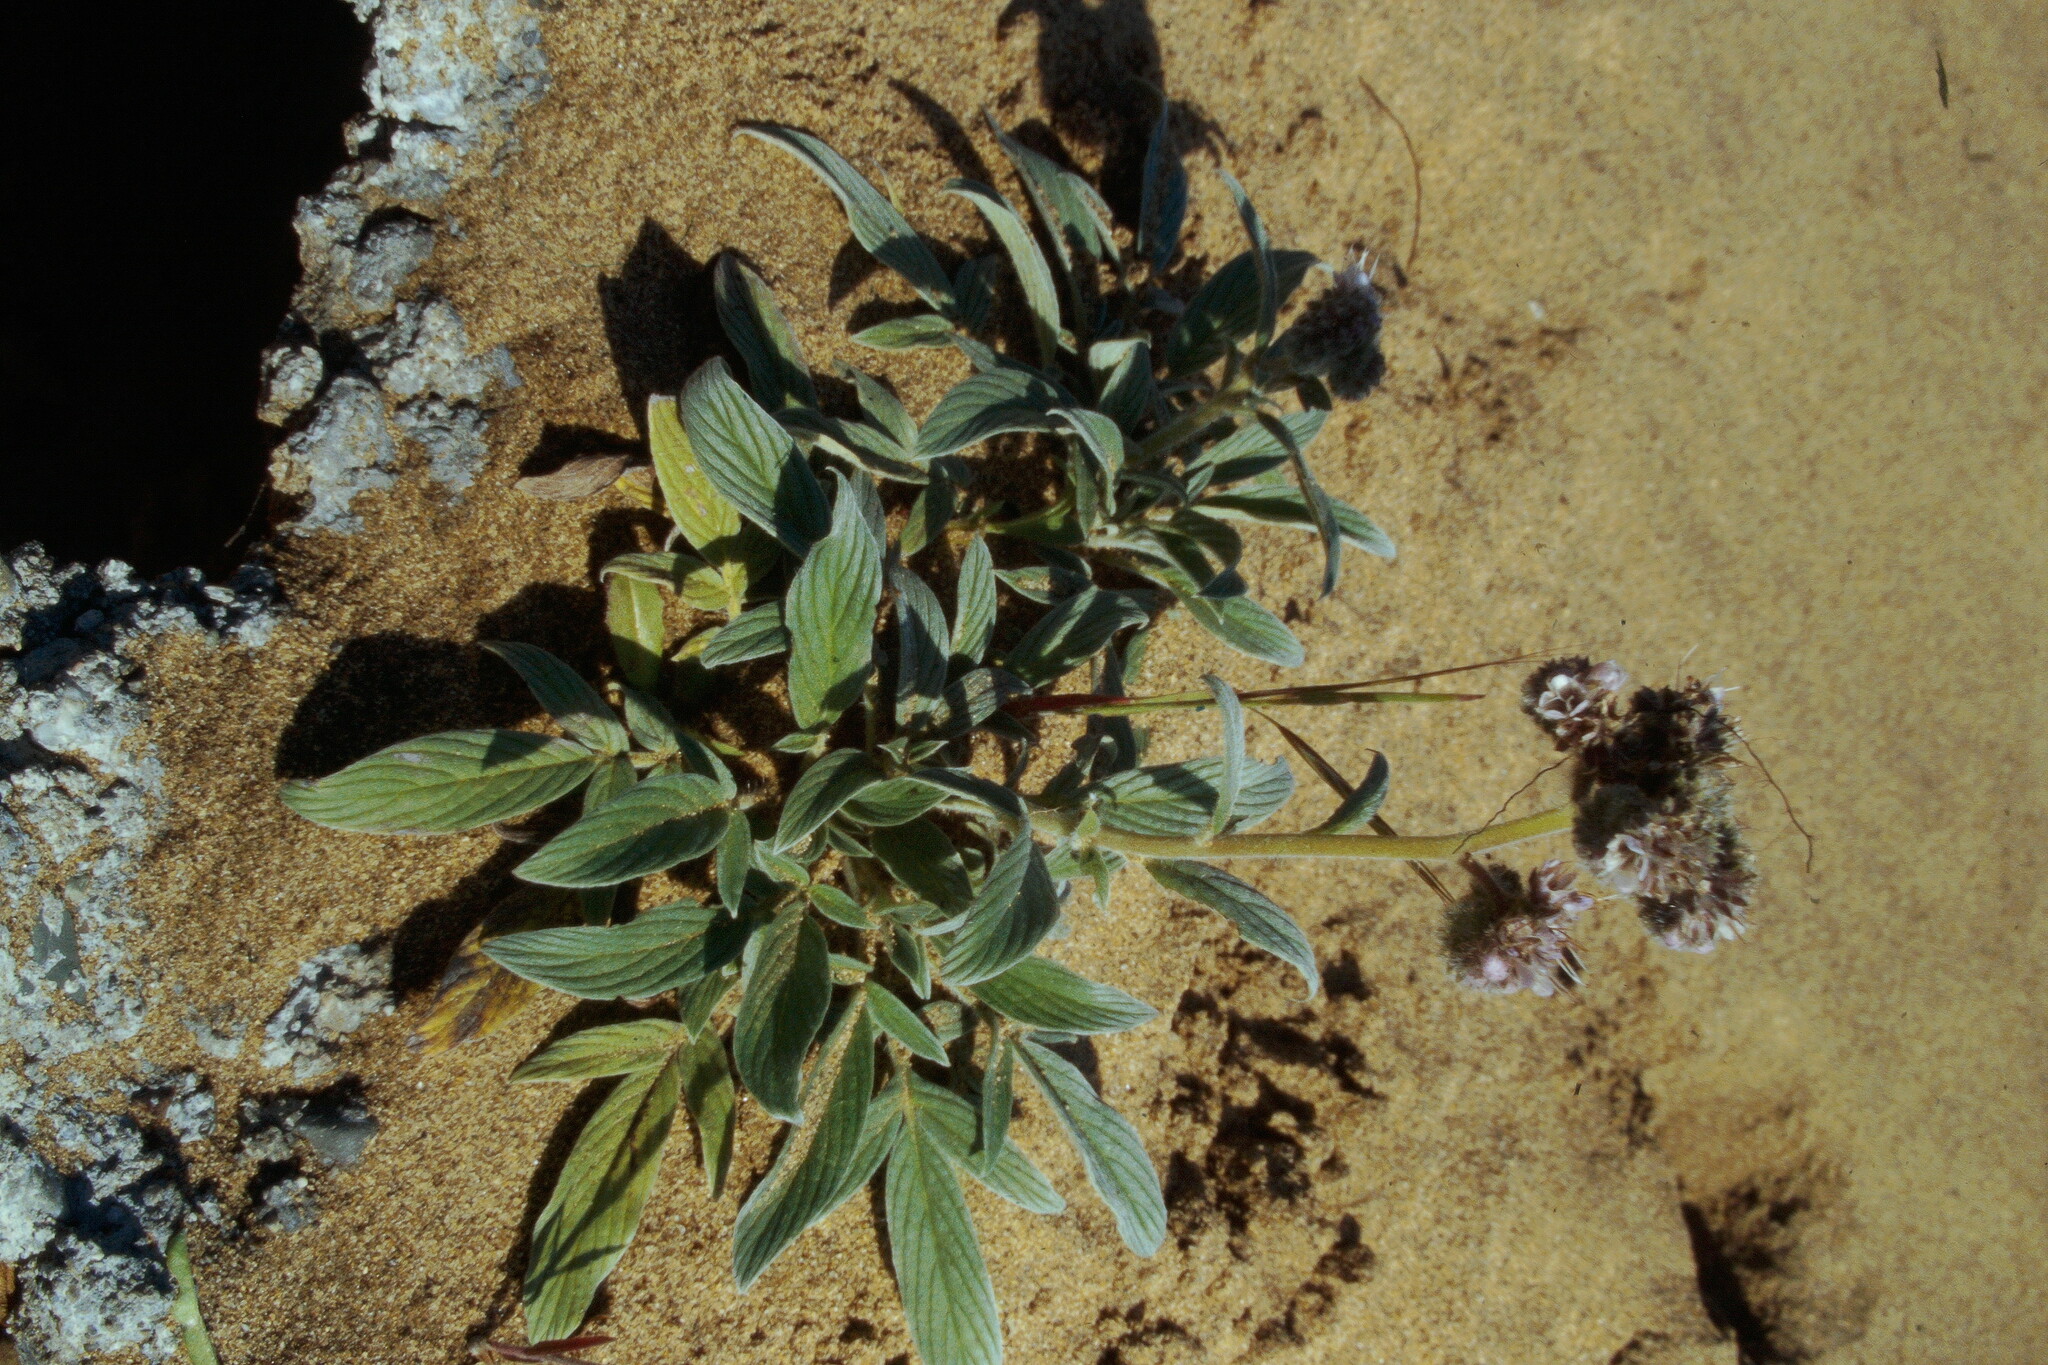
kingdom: Plantae
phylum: Tracheophyta
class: Magnoliopsida
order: Boraginales
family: Hydrophyllaceae
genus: Phacelia
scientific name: Phacelia californica
